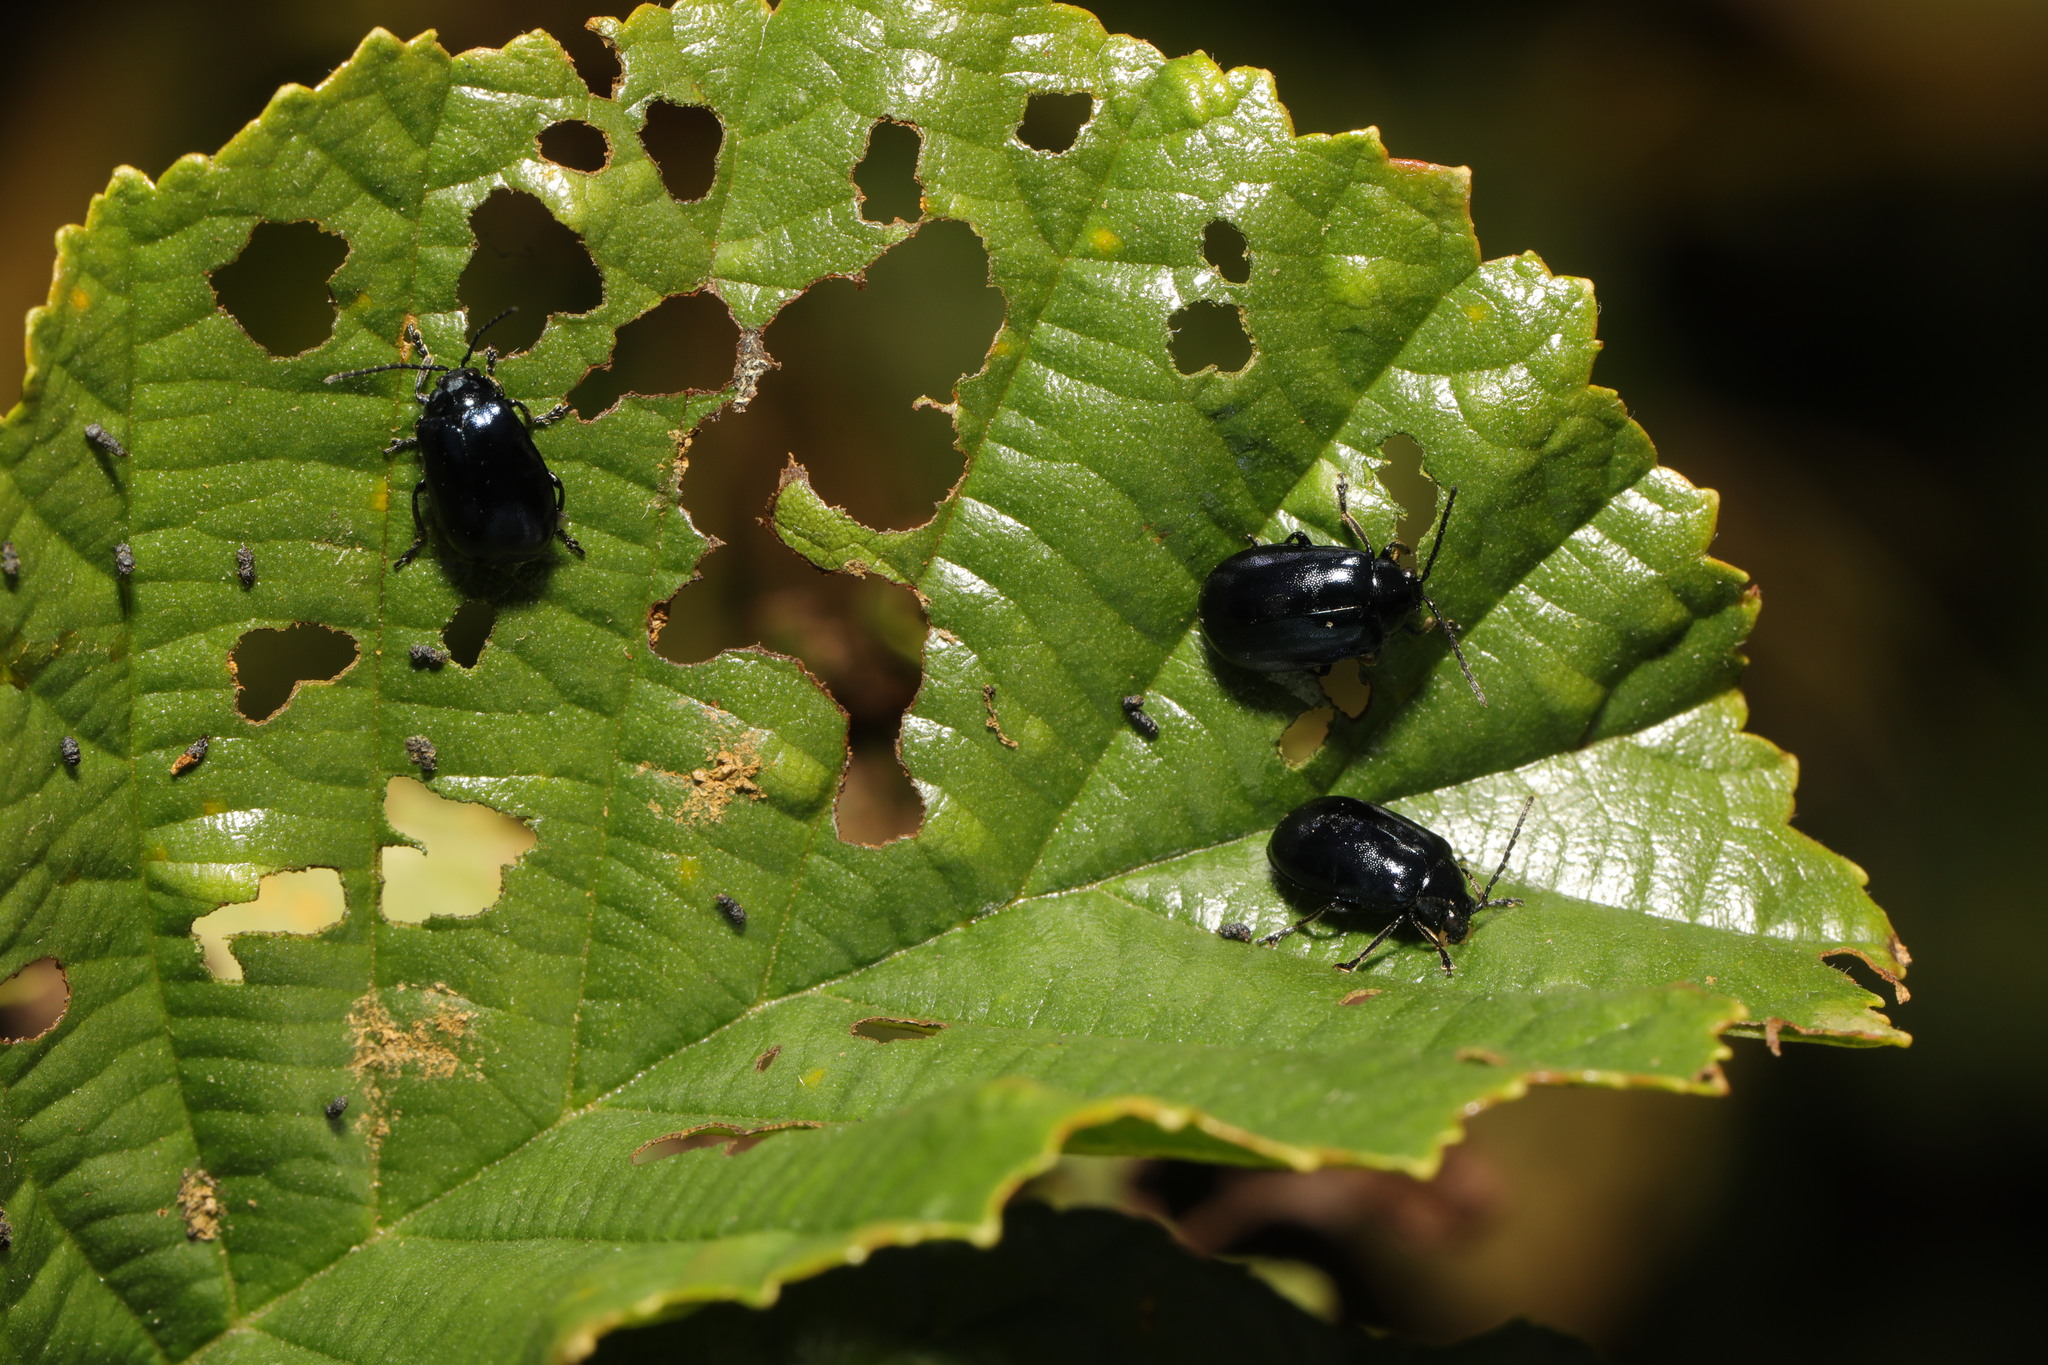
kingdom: Animalia
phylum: Arthropoda
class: Insecta
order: Coleoptera
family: Chrysomelidae
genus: Agelastica
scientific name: Agelastica alni
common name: Alder leaf beetle
